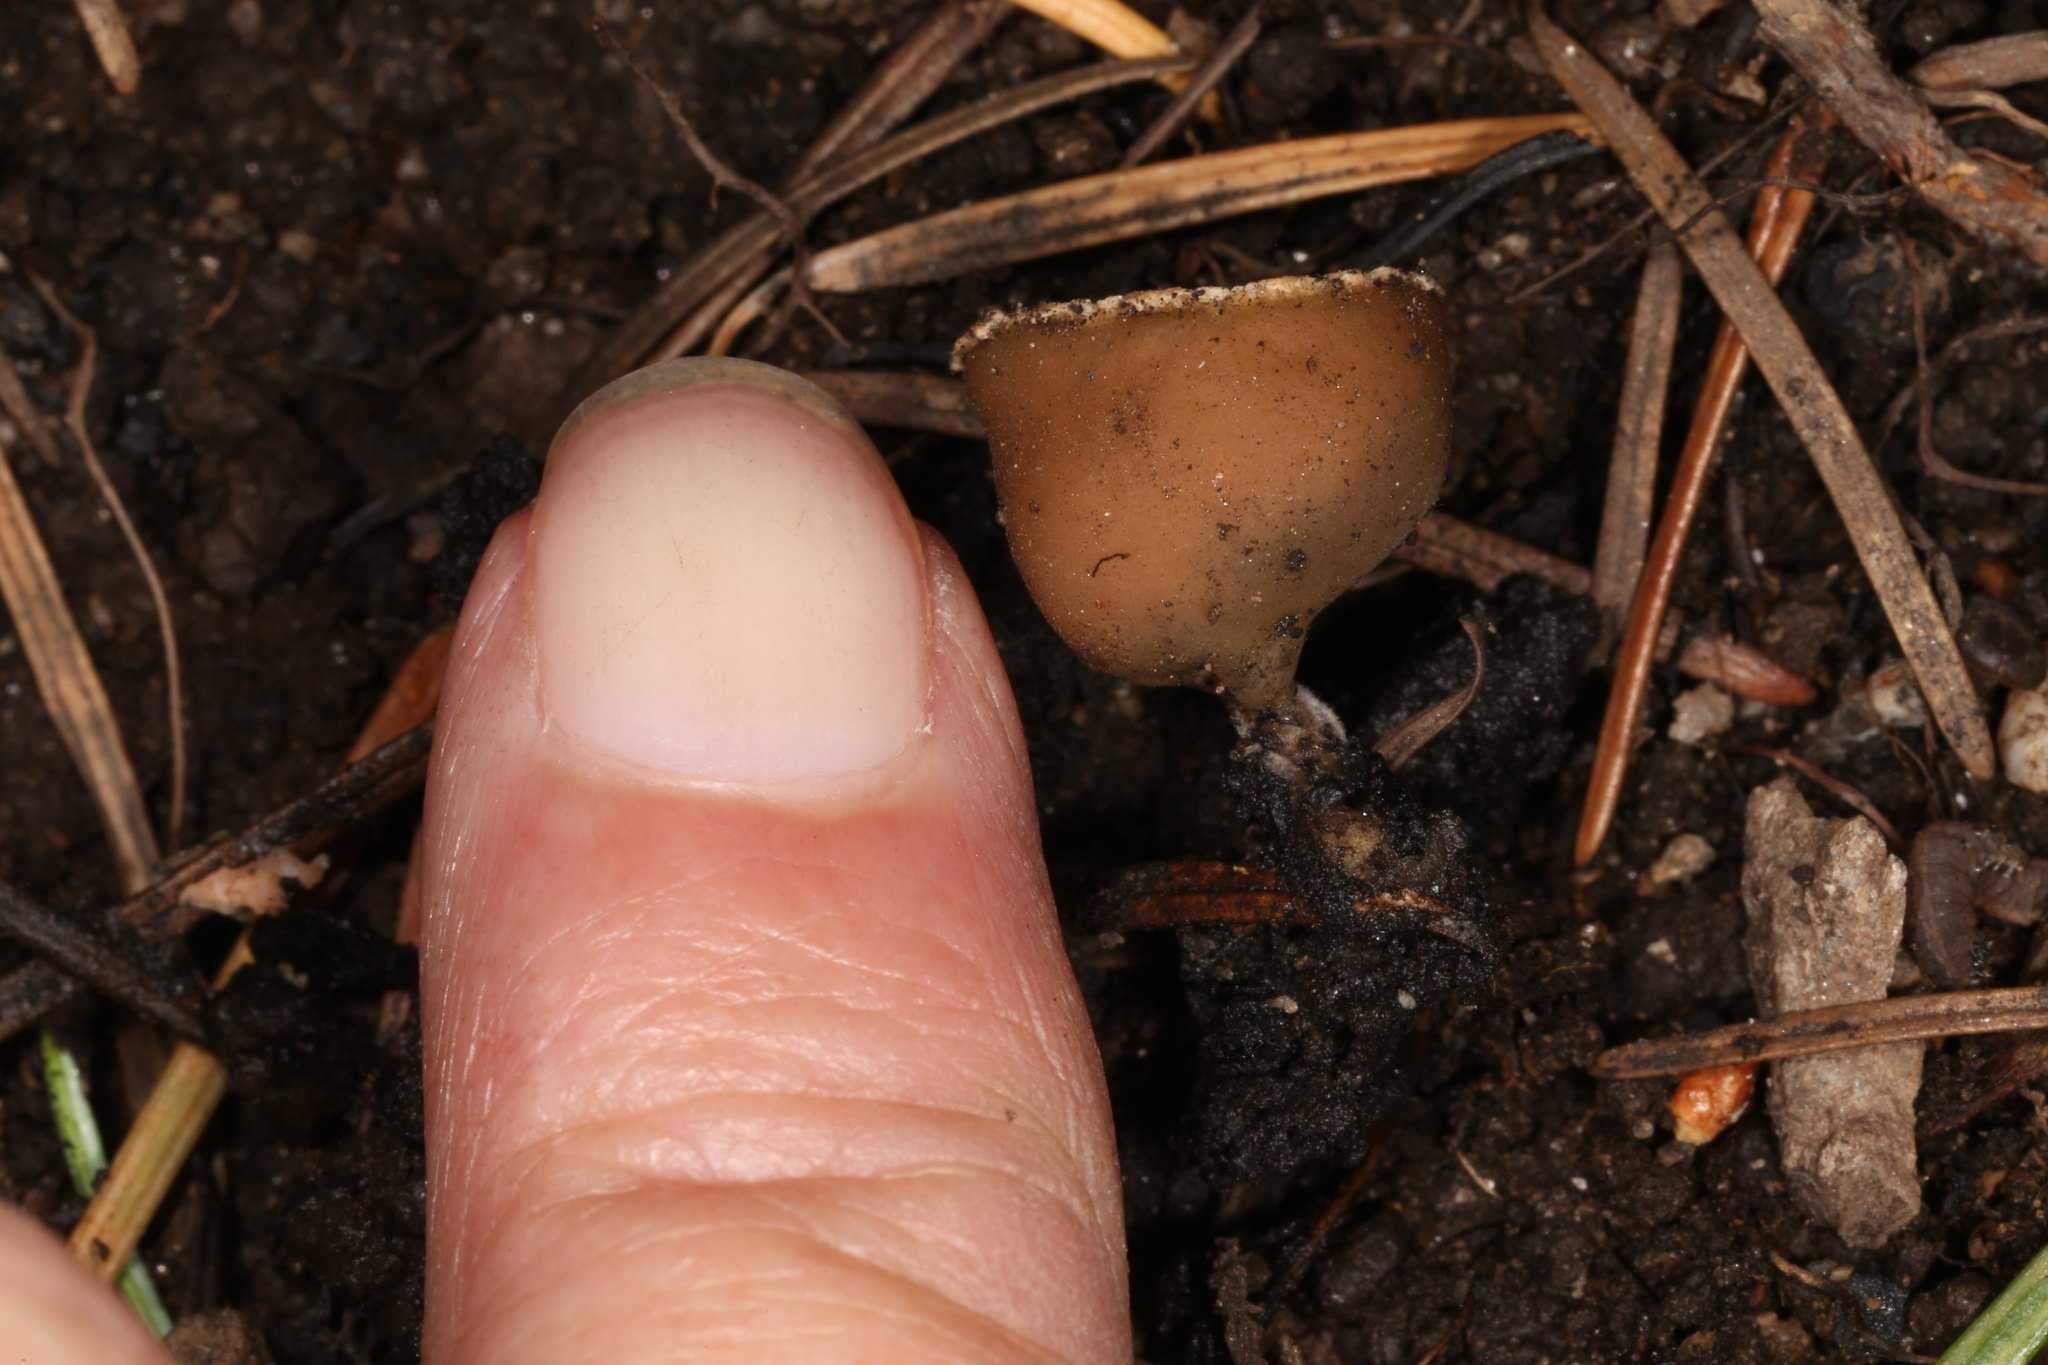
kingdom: Fungi
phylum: Ascomycota
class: Pezizomycetes
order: Pezizales
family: Pyronemataceae
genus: Geopyxis
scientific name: Geopyxis carbonaria
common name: Stalked bonfire cup
